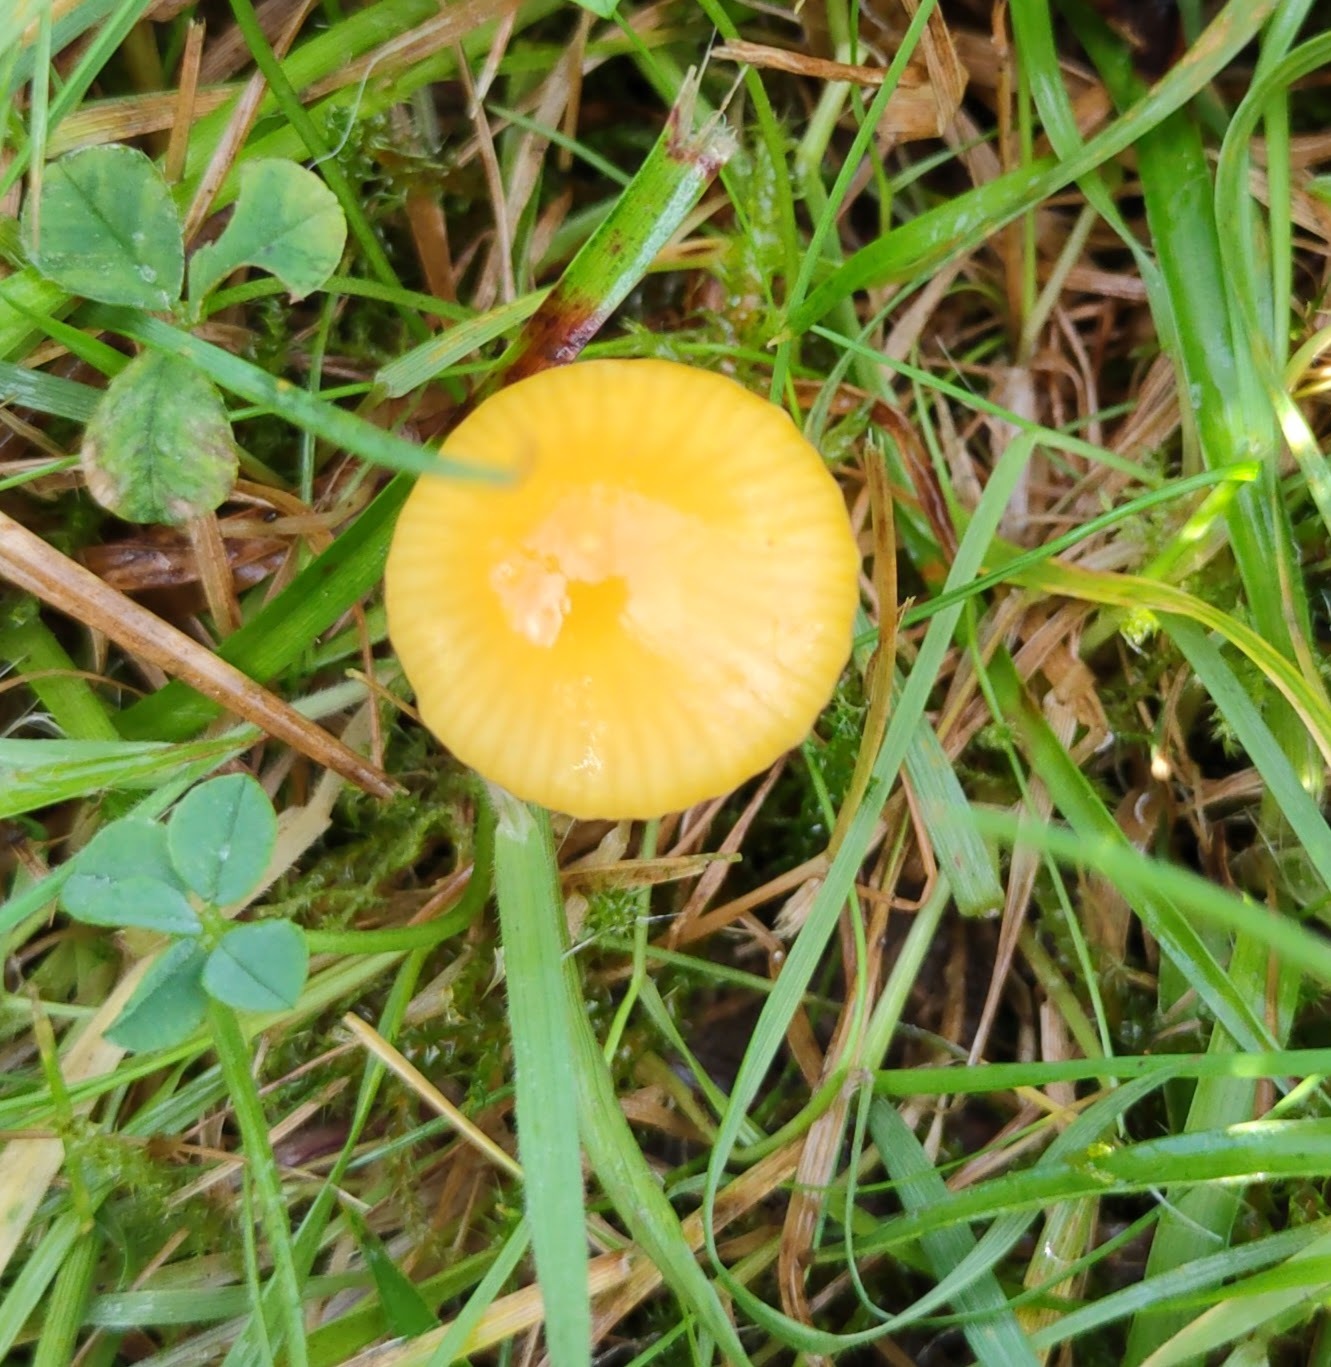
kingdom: Fungi
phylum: Basidiomycota
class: Agaricomycetes
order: Agaricales
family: Hygrophoraceae
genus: Gliophorus
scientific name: Gliophorus psittacinus
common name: Parrot wax-cap
